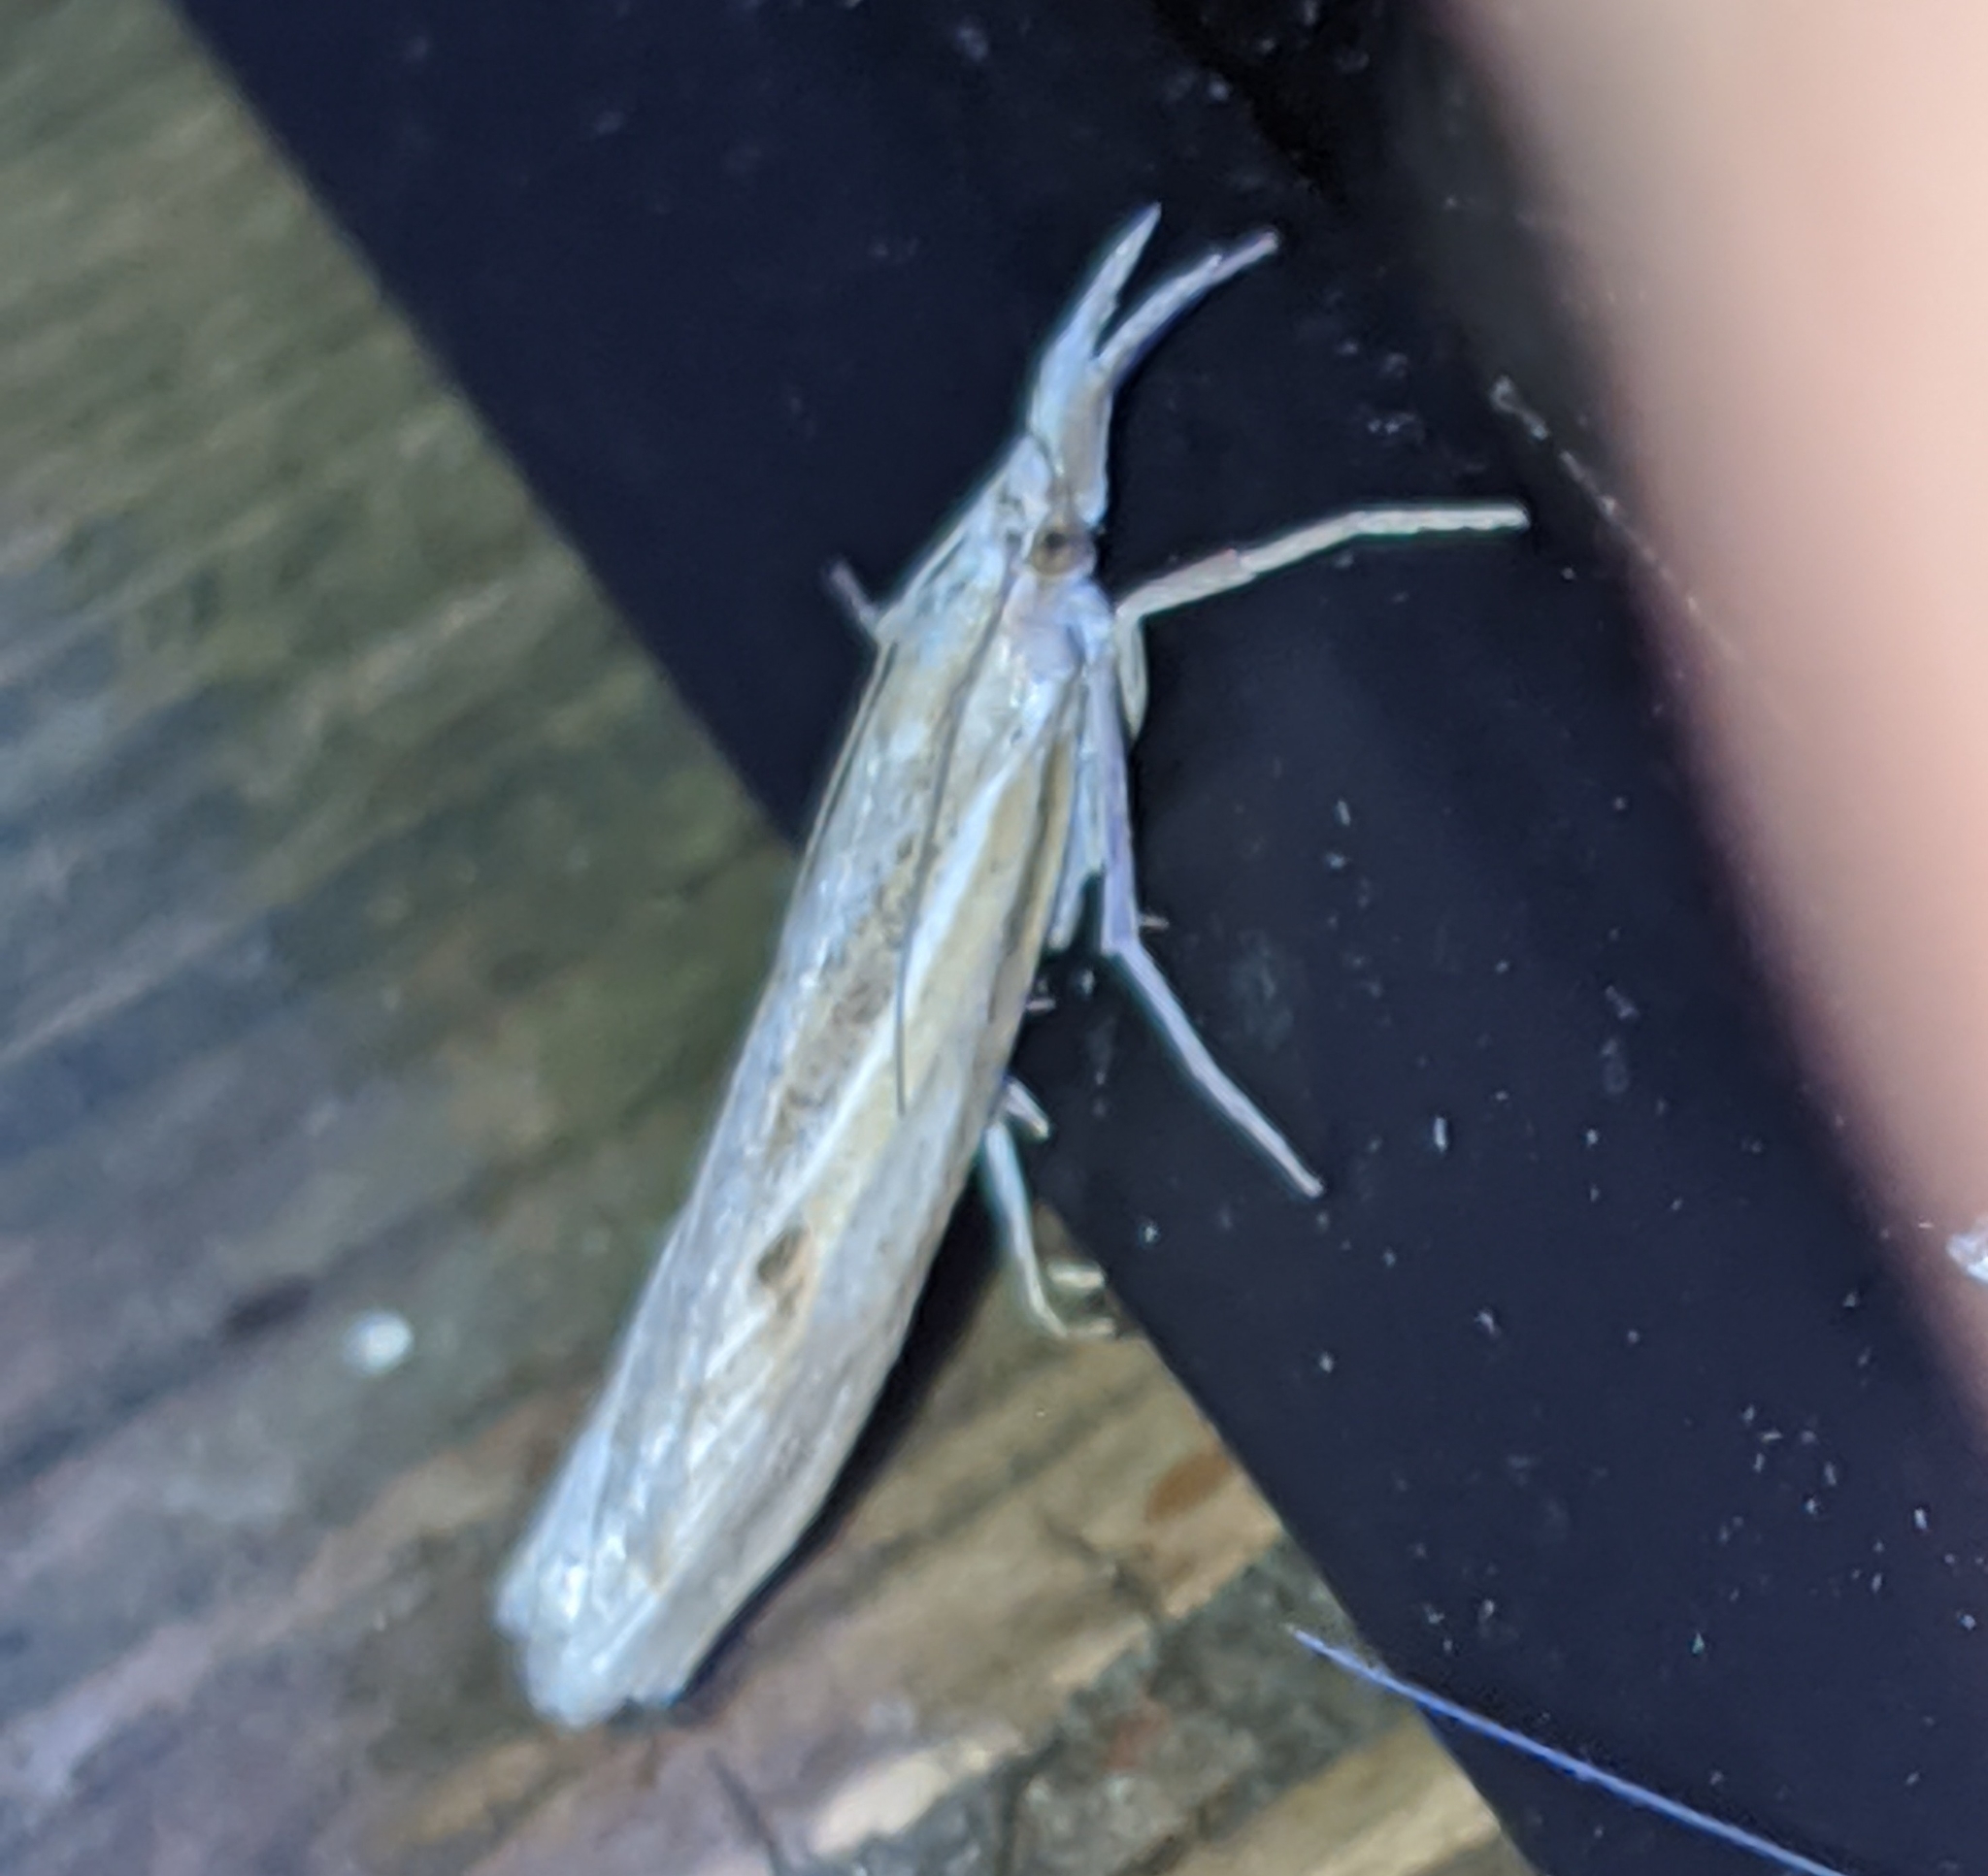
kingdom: Animalia
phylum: Arthropoda
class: Insecta
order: Lepidoptera
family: Crambidae
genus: Pediasia
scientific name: Pediasia trisecta
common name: Sod webworm moth
